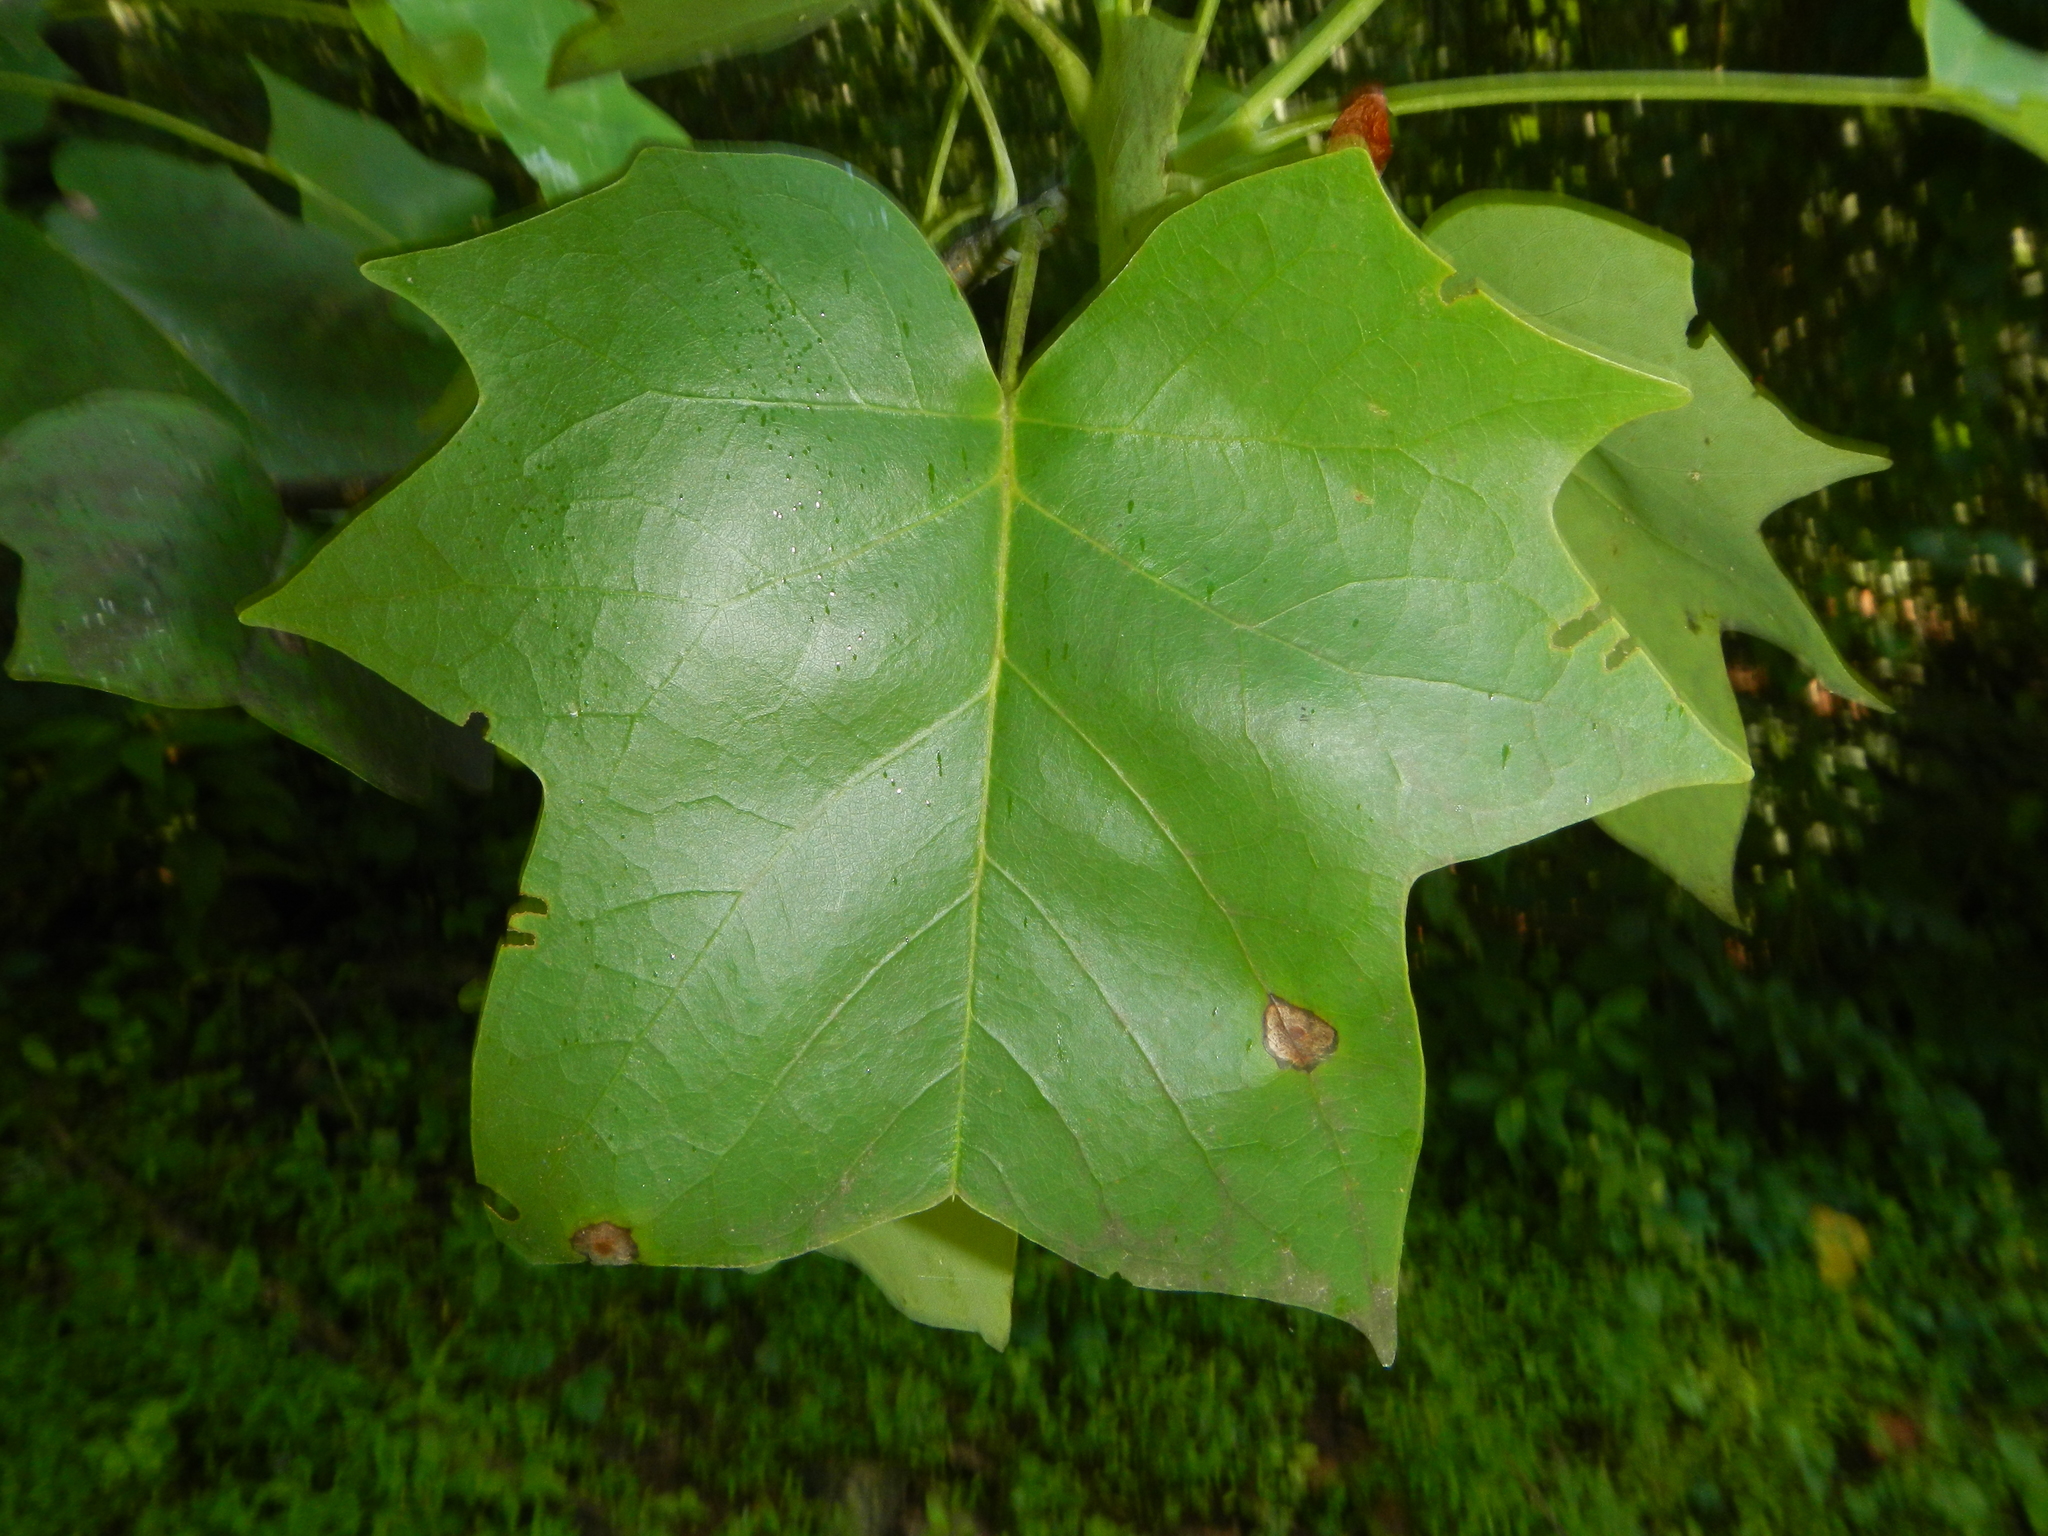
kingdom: Plantae
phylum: Tracheophyta
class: Magnoliopsida
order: Magnoliales
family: Magnoliaceae
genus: Liriodendron
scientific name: Liriodendron tulipifera
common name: Tulip tree
